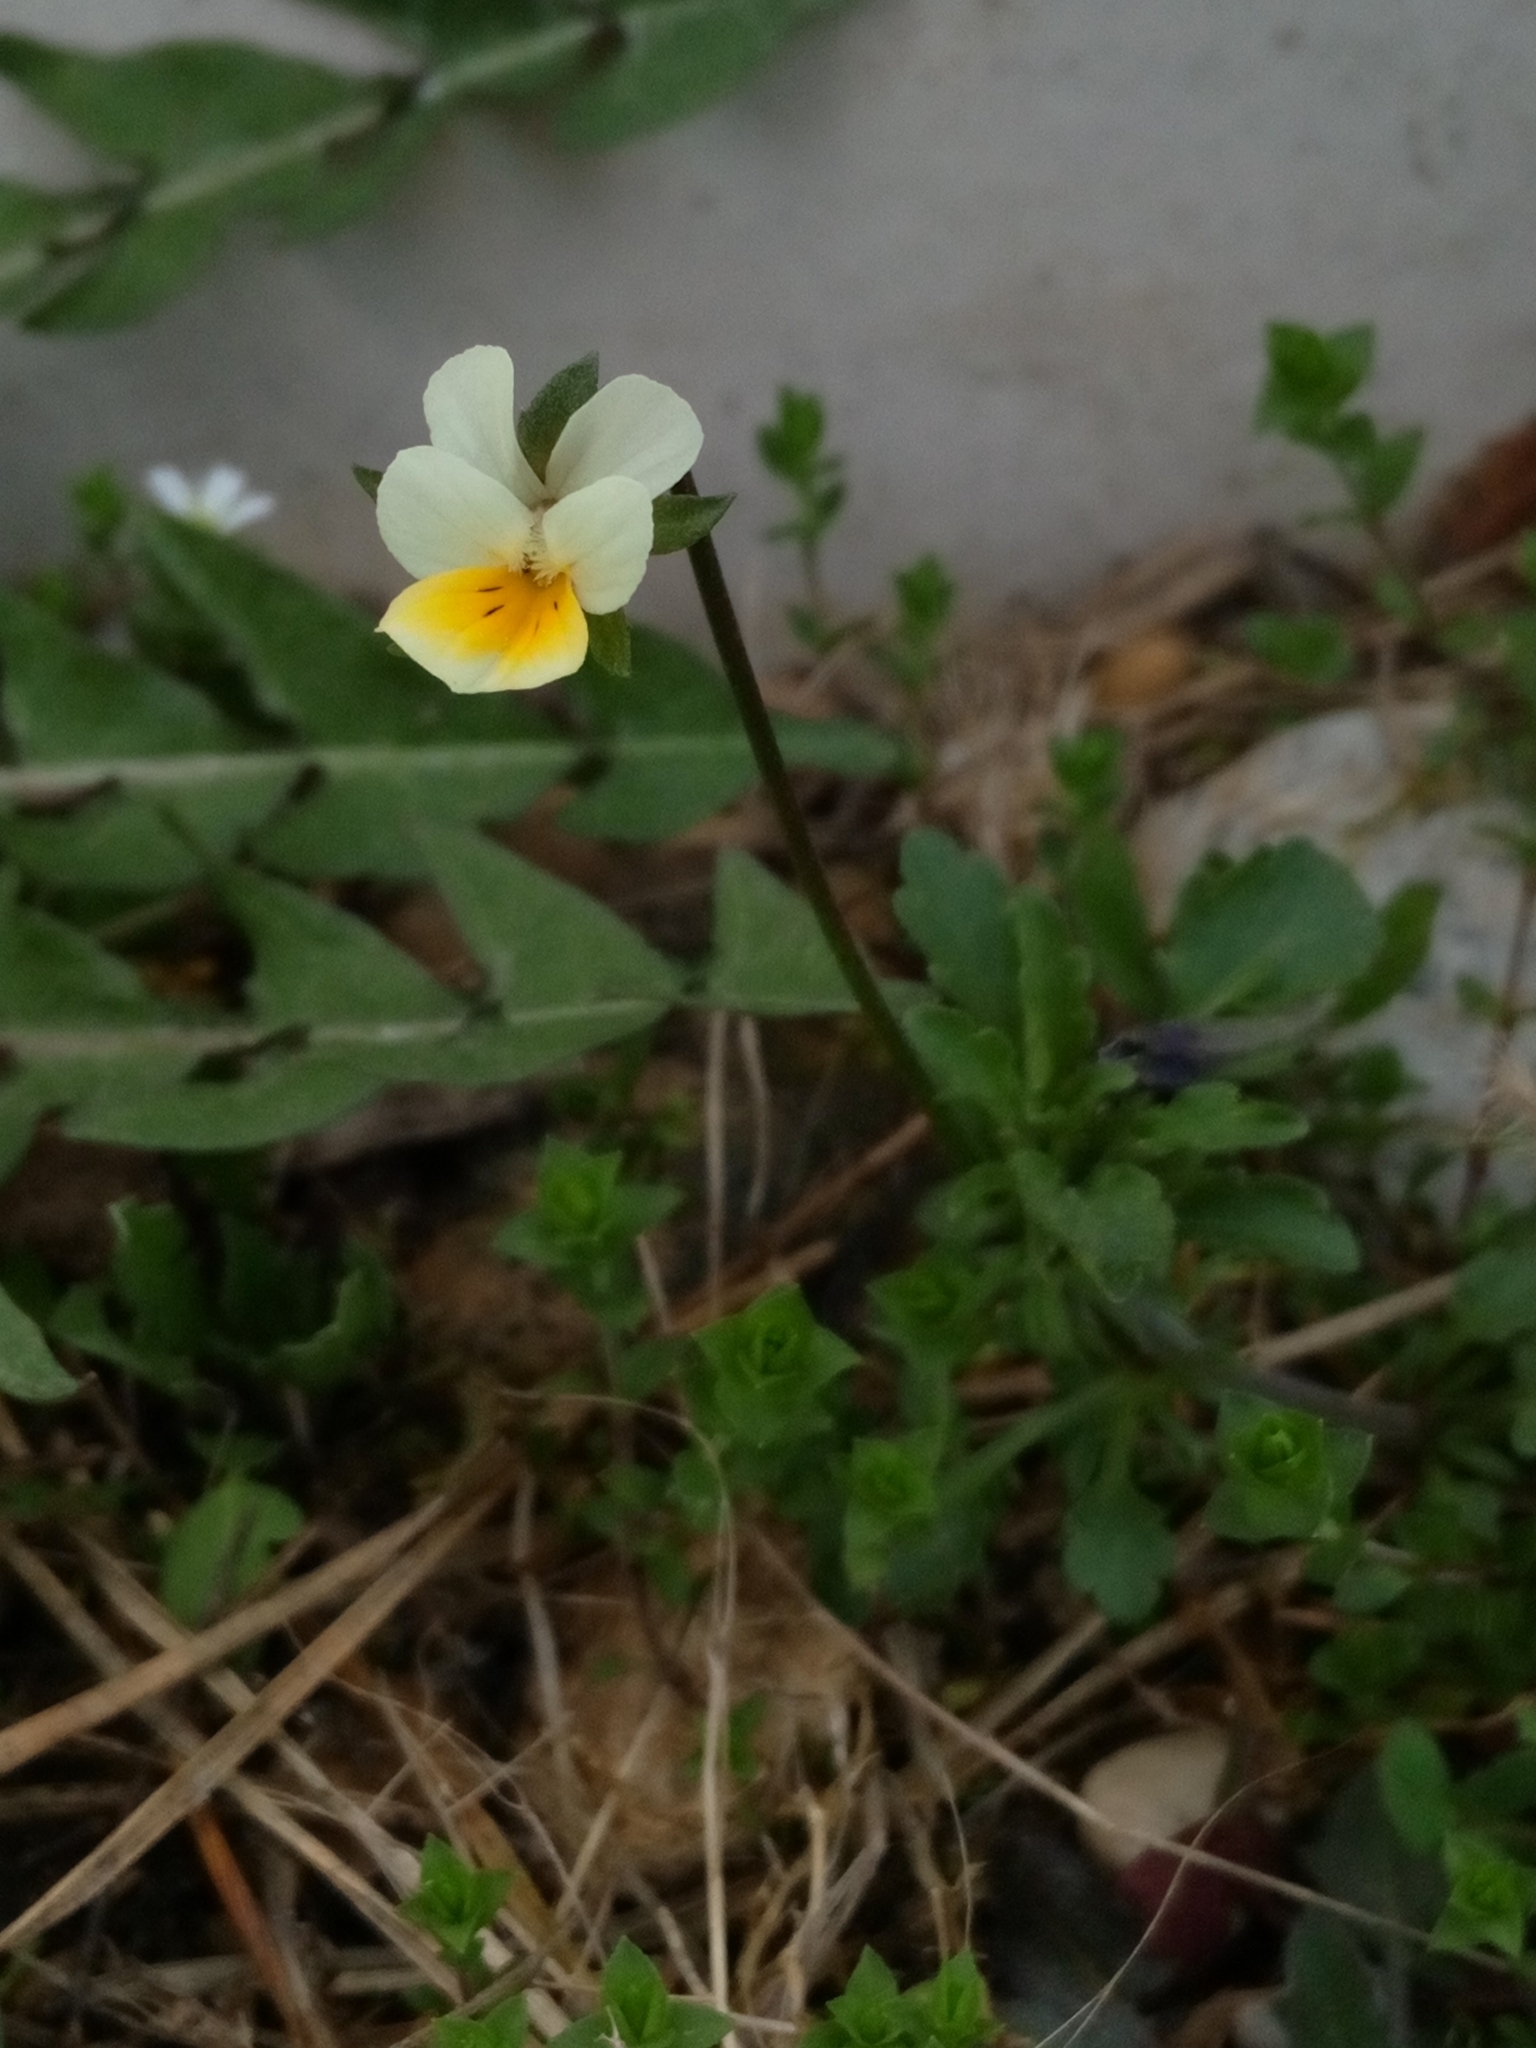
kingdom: Plantae
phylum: Tracheophyta
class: Magnoliopsida
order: Malpighiales
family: Violaceae
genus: Viola
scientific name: Viola arvensis
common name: Field pansy
